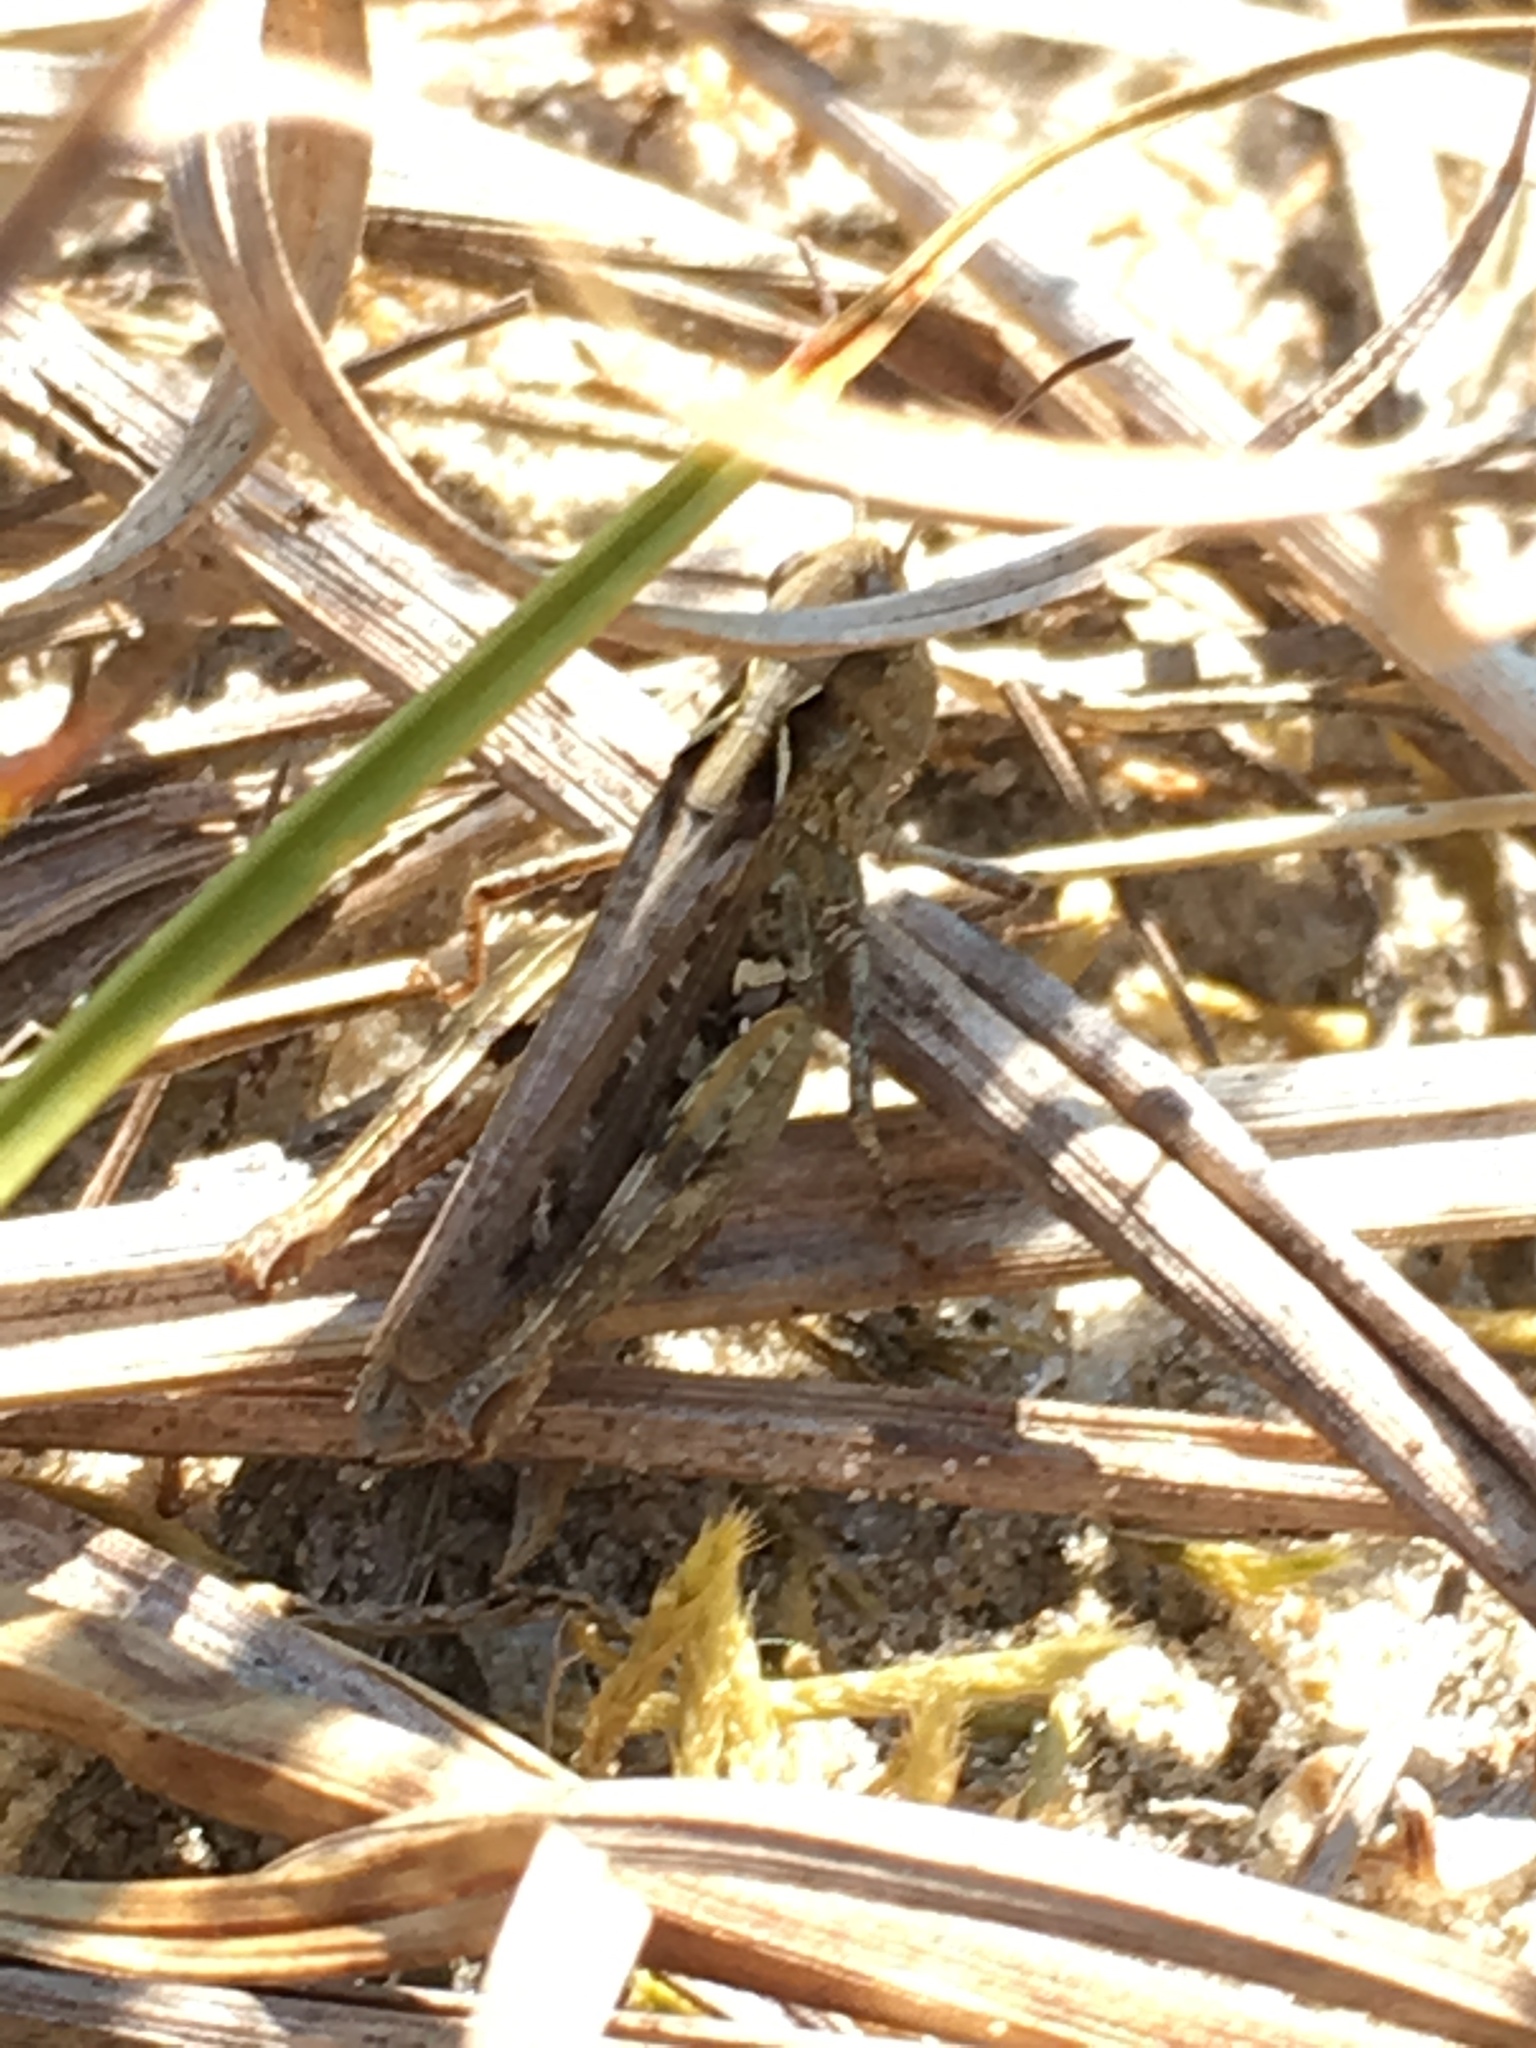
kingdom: Animalia
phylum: Arthropoda
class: Insecta
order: Orthoptera
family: Acrididae
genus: Myrmeleotettix
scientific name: Myrmeleotettix maculatus
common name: Mottled grasshopper
